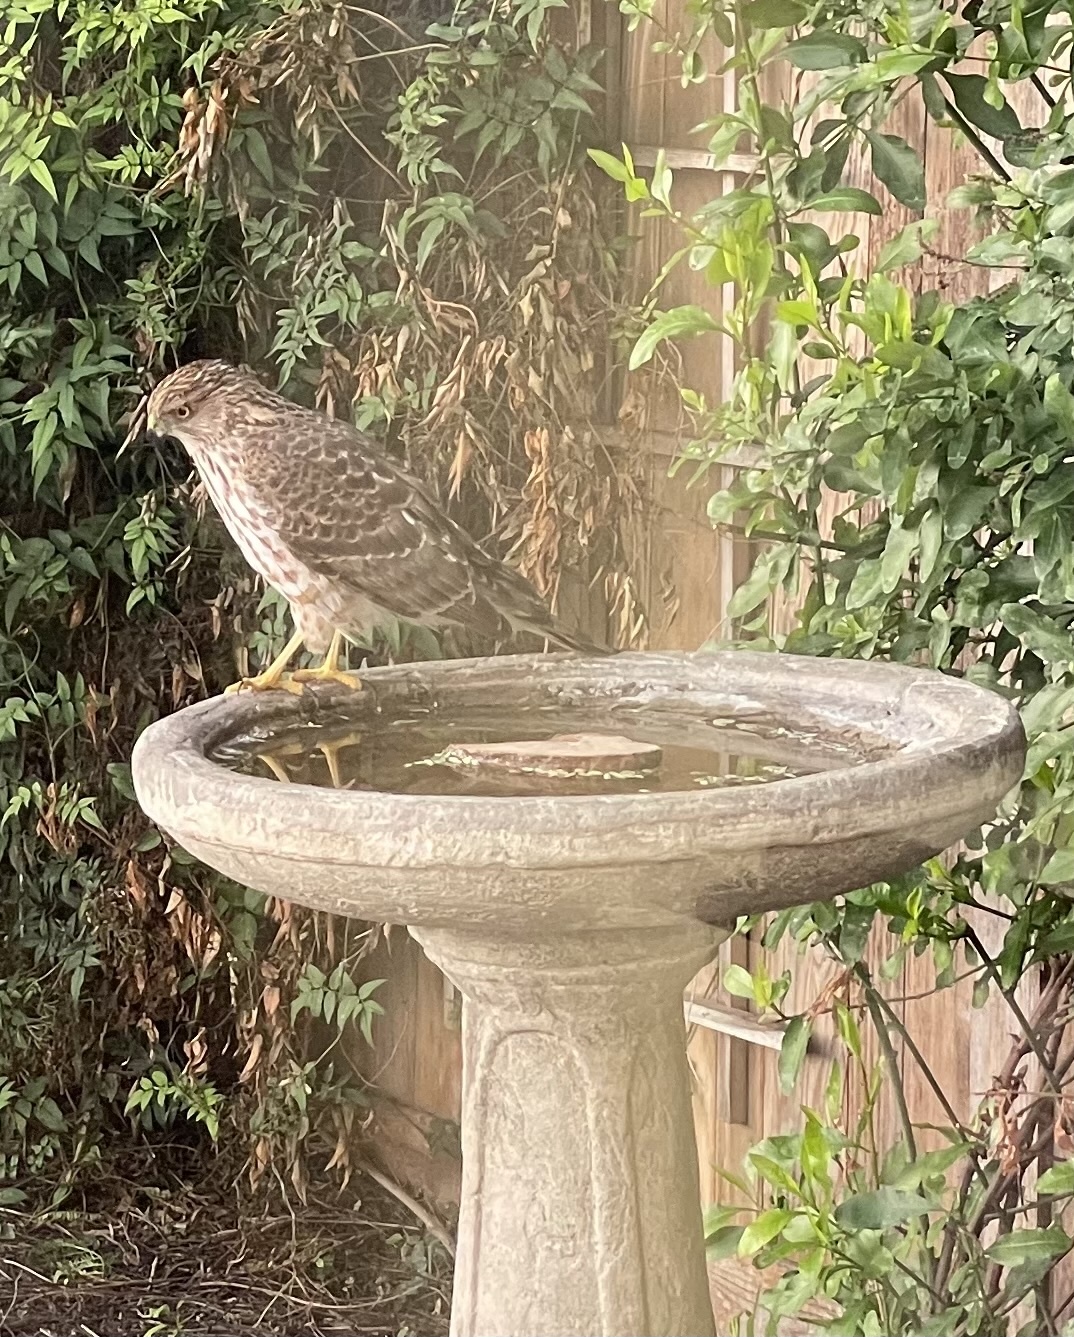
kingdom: Animalia
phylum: Chordata
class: Aves
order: Accipitriformes
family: Accipitridae
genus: Accipiter
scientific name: Accipiter cooperii
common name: Cooper's hawk
